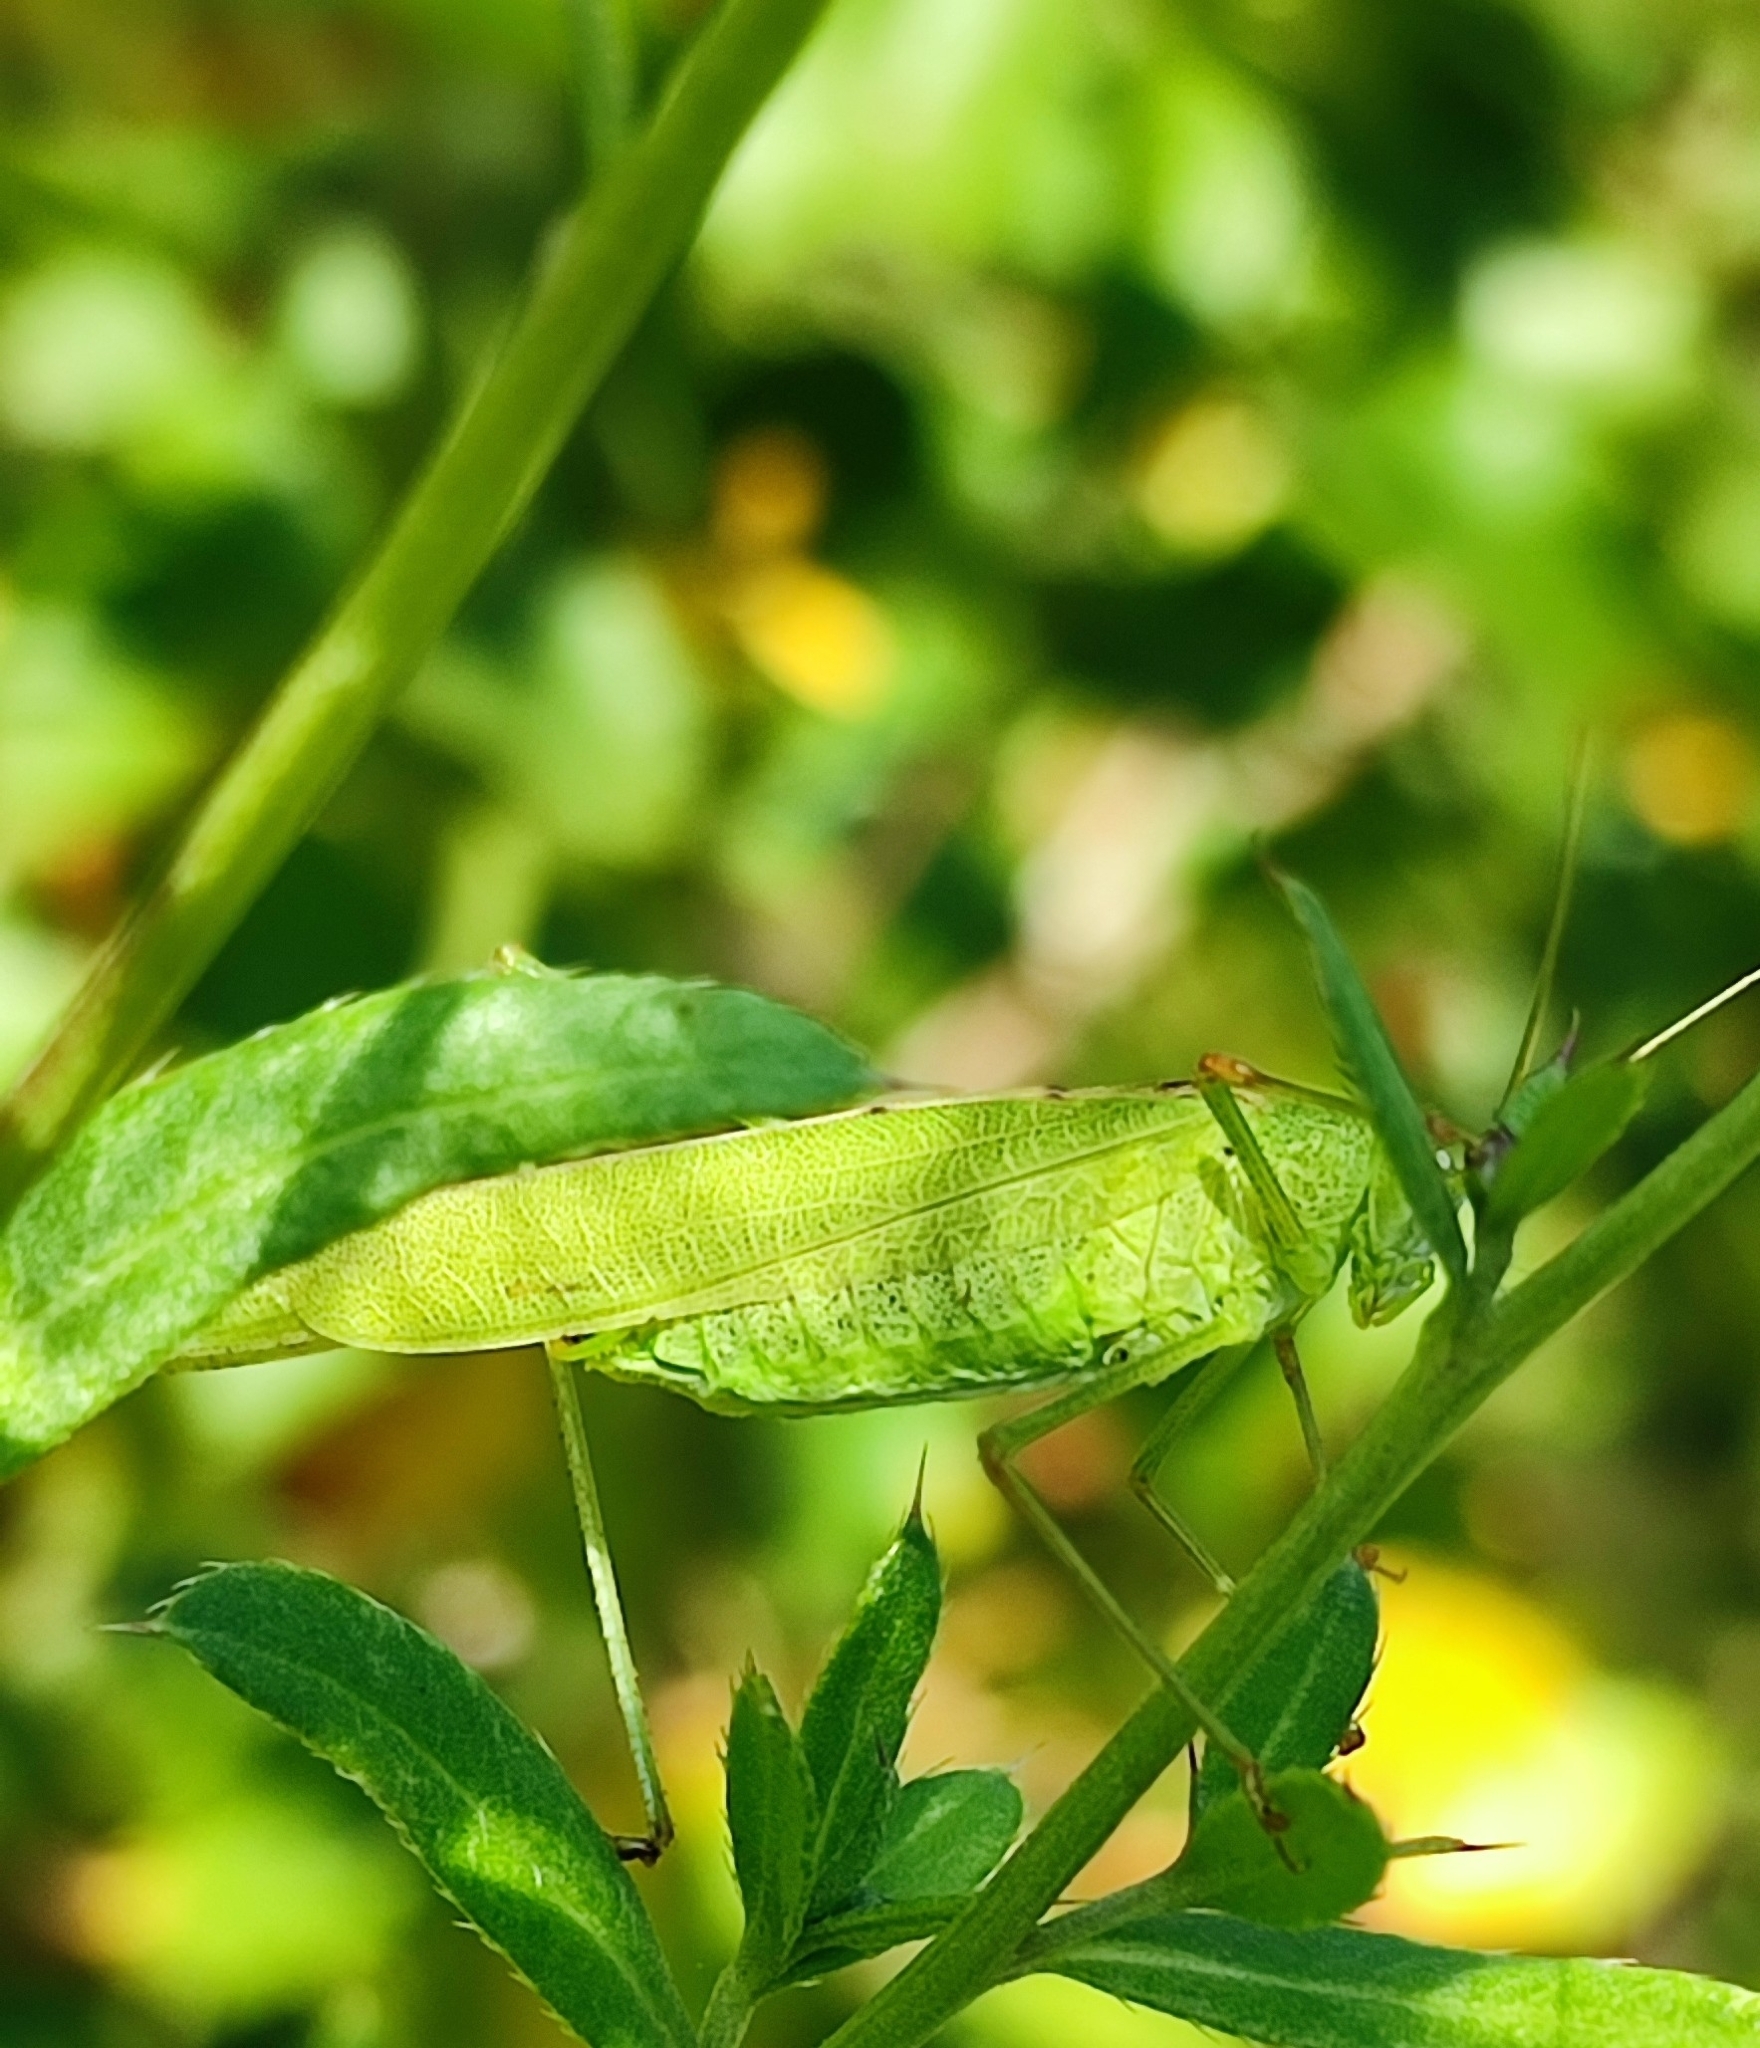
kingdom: Animalia
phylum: Arthropoda
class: Insecta
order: Orthoptera
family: Tettigoniidae
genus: Phaneroptera
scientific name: Phaneroptera falcata
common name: Sickle-bearing bush-cricket
